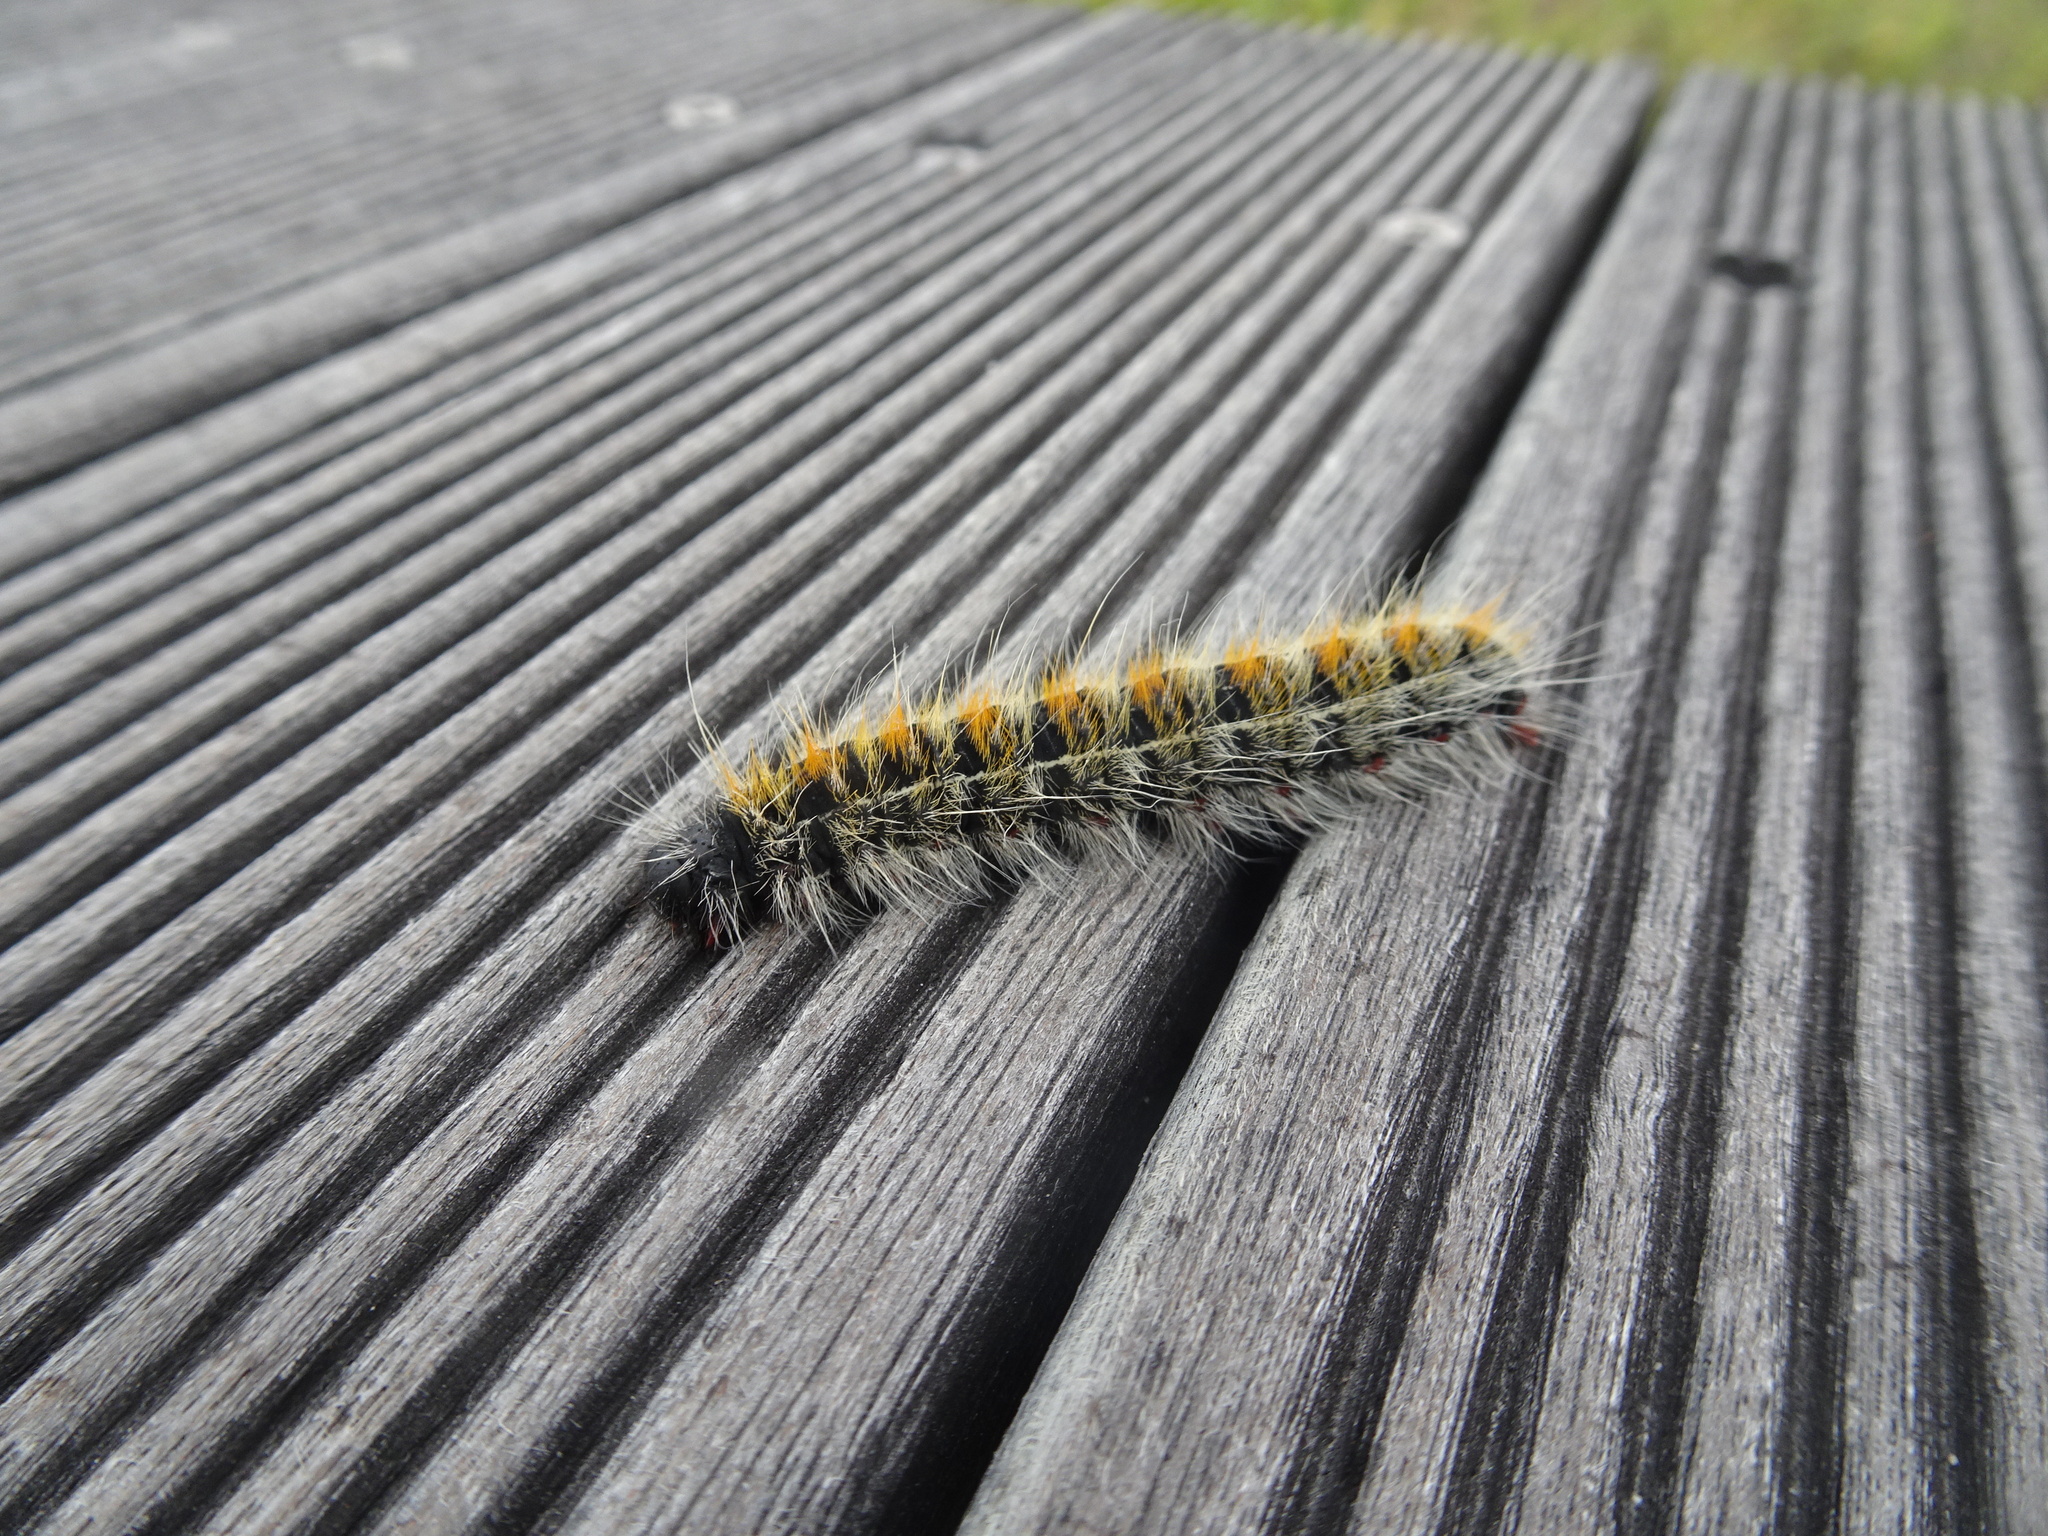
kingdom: Animalia
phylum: Arthropoda
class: Insecta
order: Lepidoptera
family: Lasiocampidae
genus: Bombycomorpha
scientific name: Bombycomorpha bifascia
